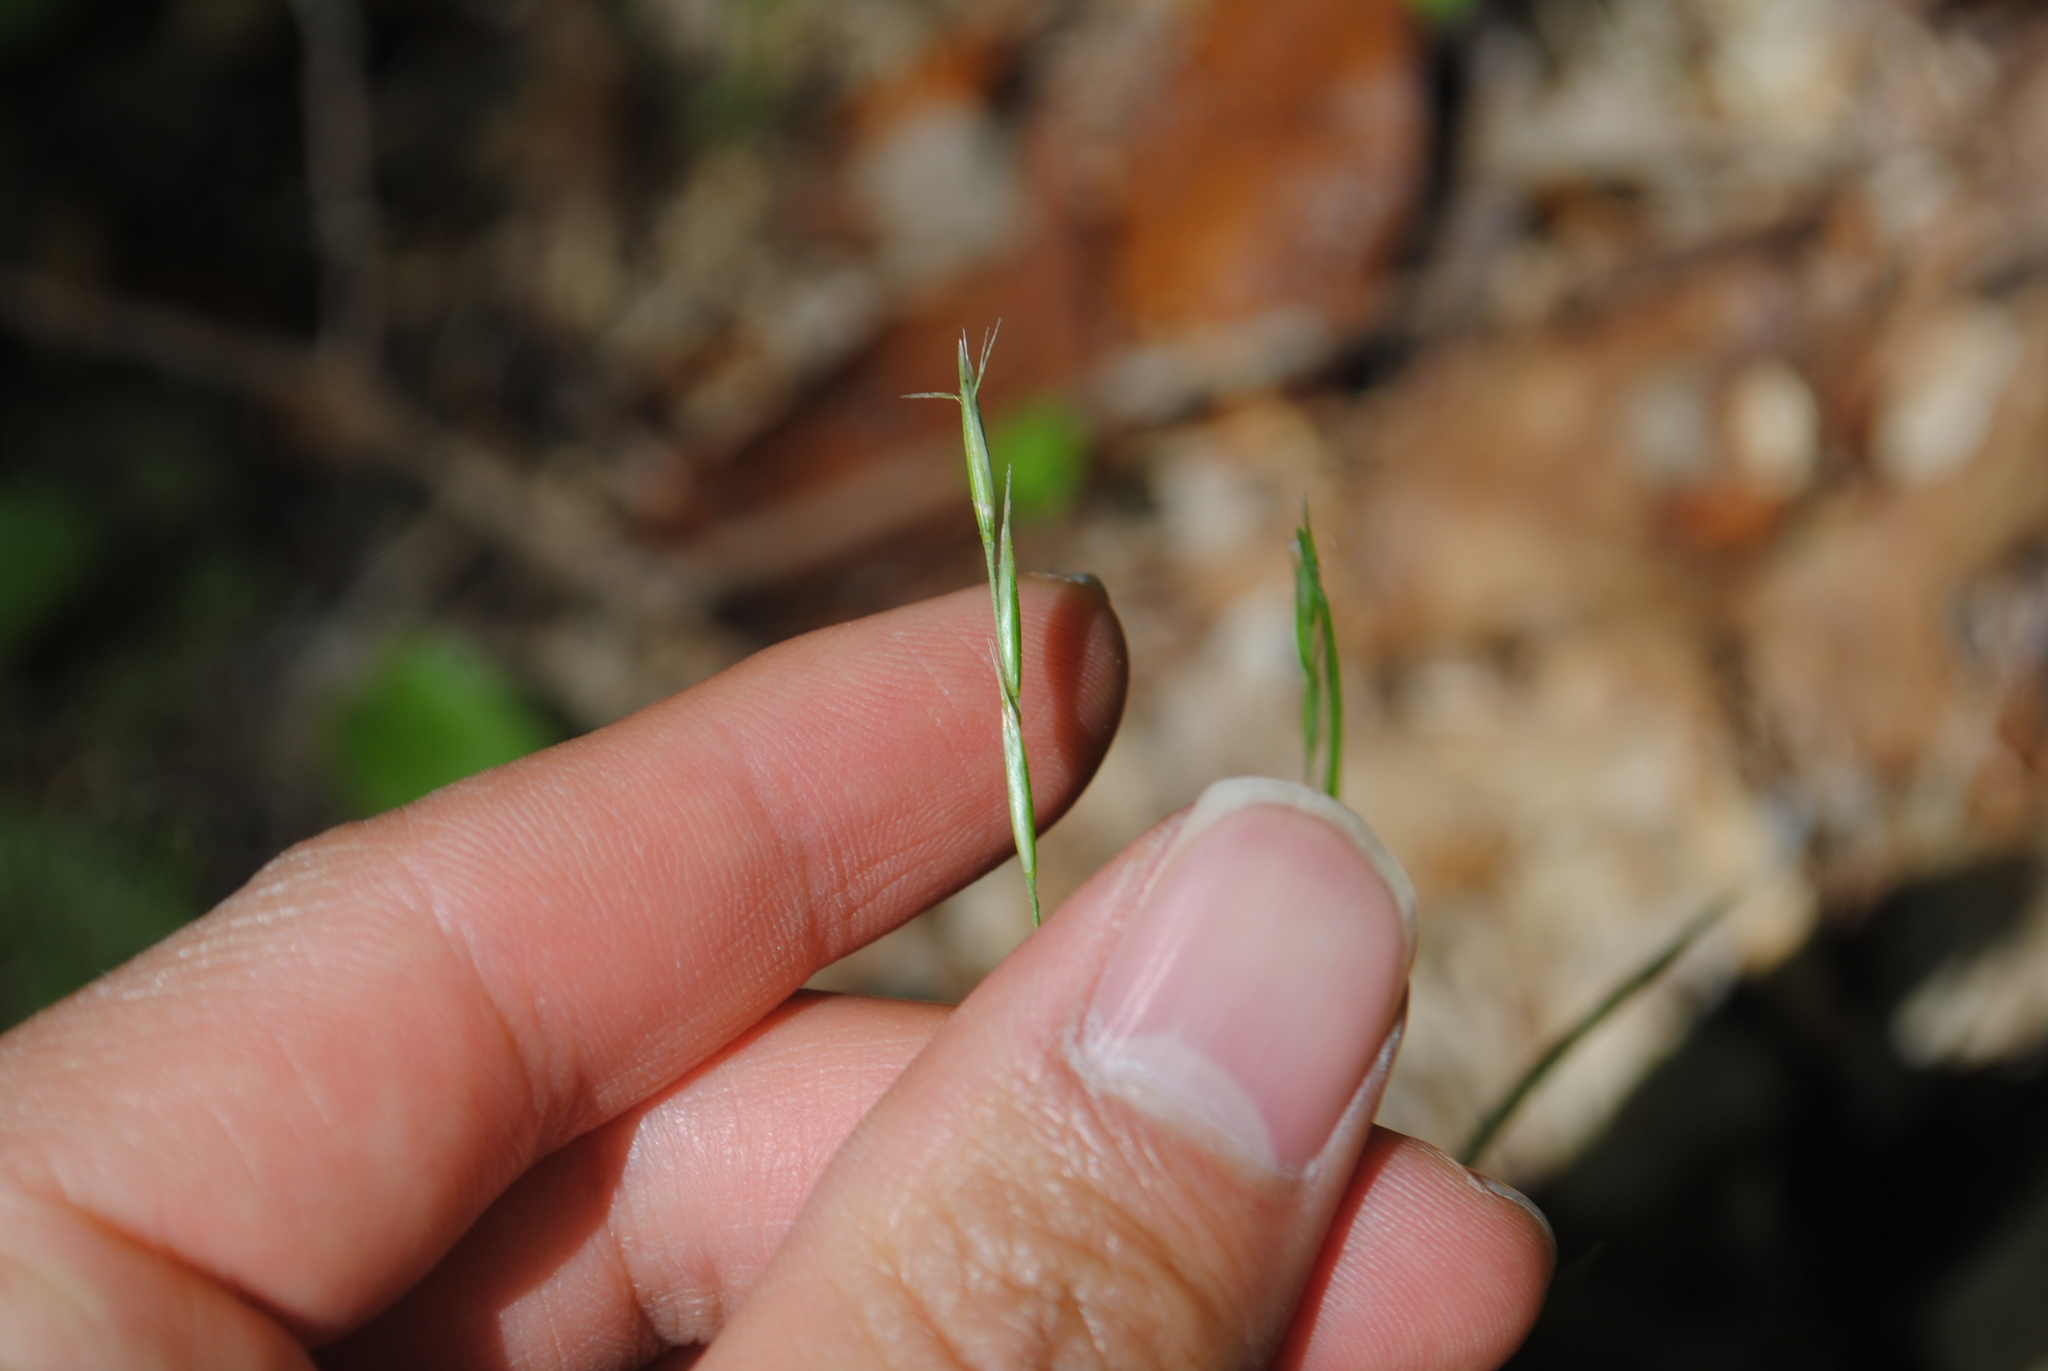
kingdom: Plantae
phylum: Tracheophyta
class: Liliopsida
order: Poales
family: Poaceae
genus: Danthonia
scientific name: Danthonia spicata
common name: Common wild oatgrass
